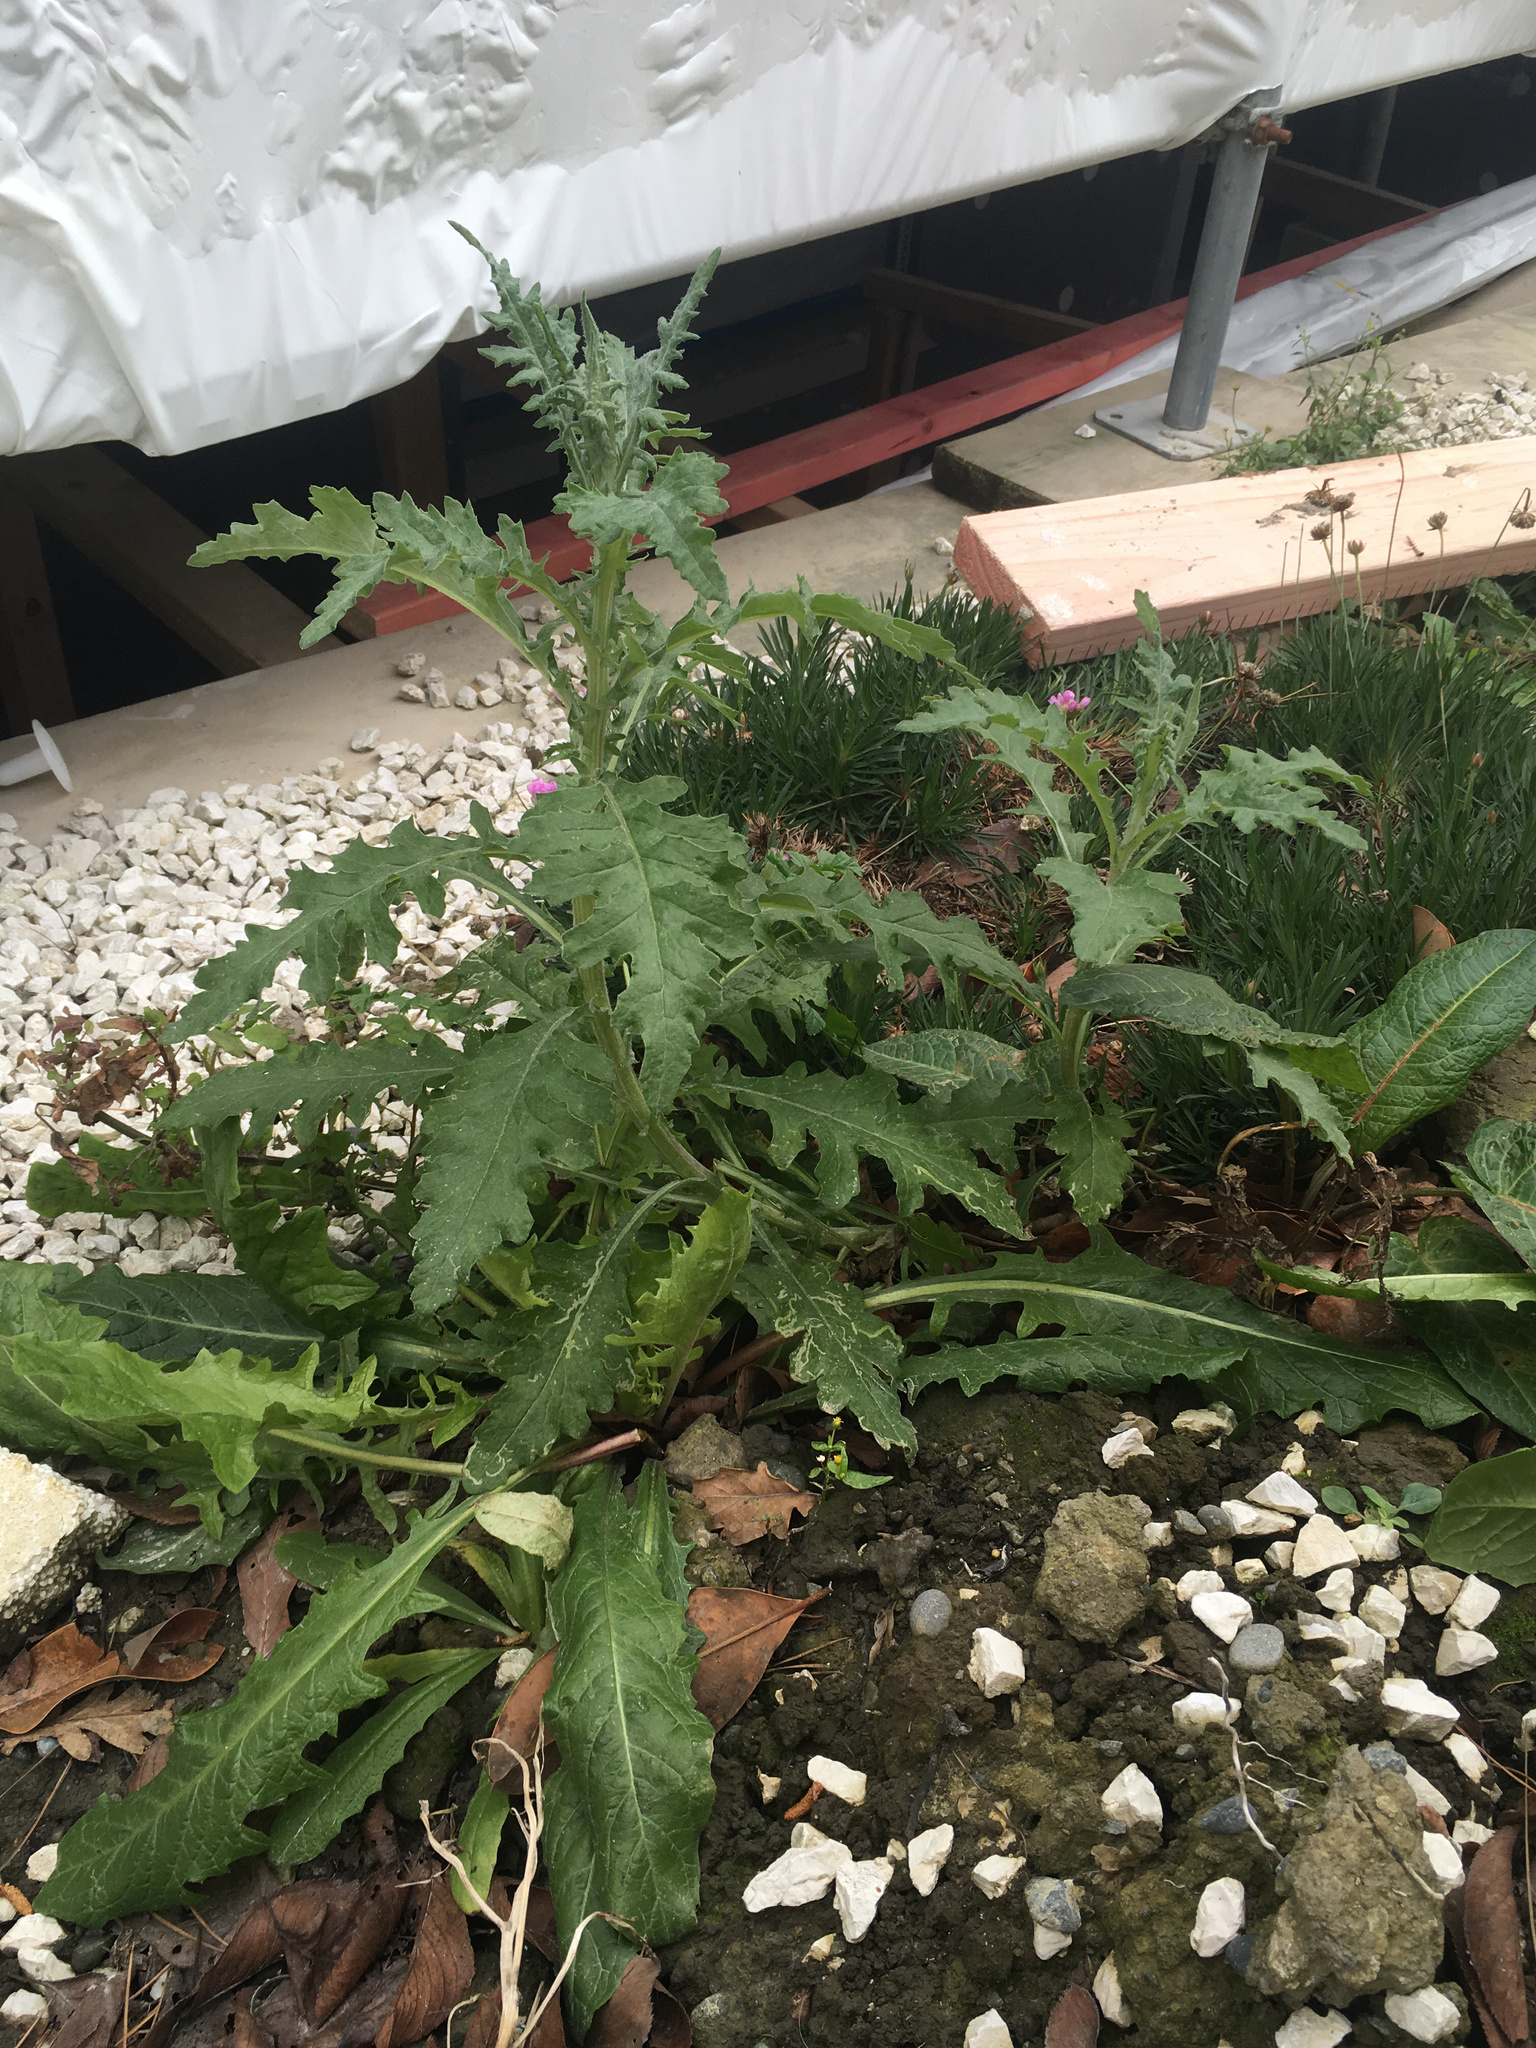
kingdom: Plantae
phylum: Tracheophyta
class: Magnoliopsida
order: Asterales
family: Asteraceae
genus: Senecio
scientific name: Senecio glomeratus
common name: Cutleaf burnweed
